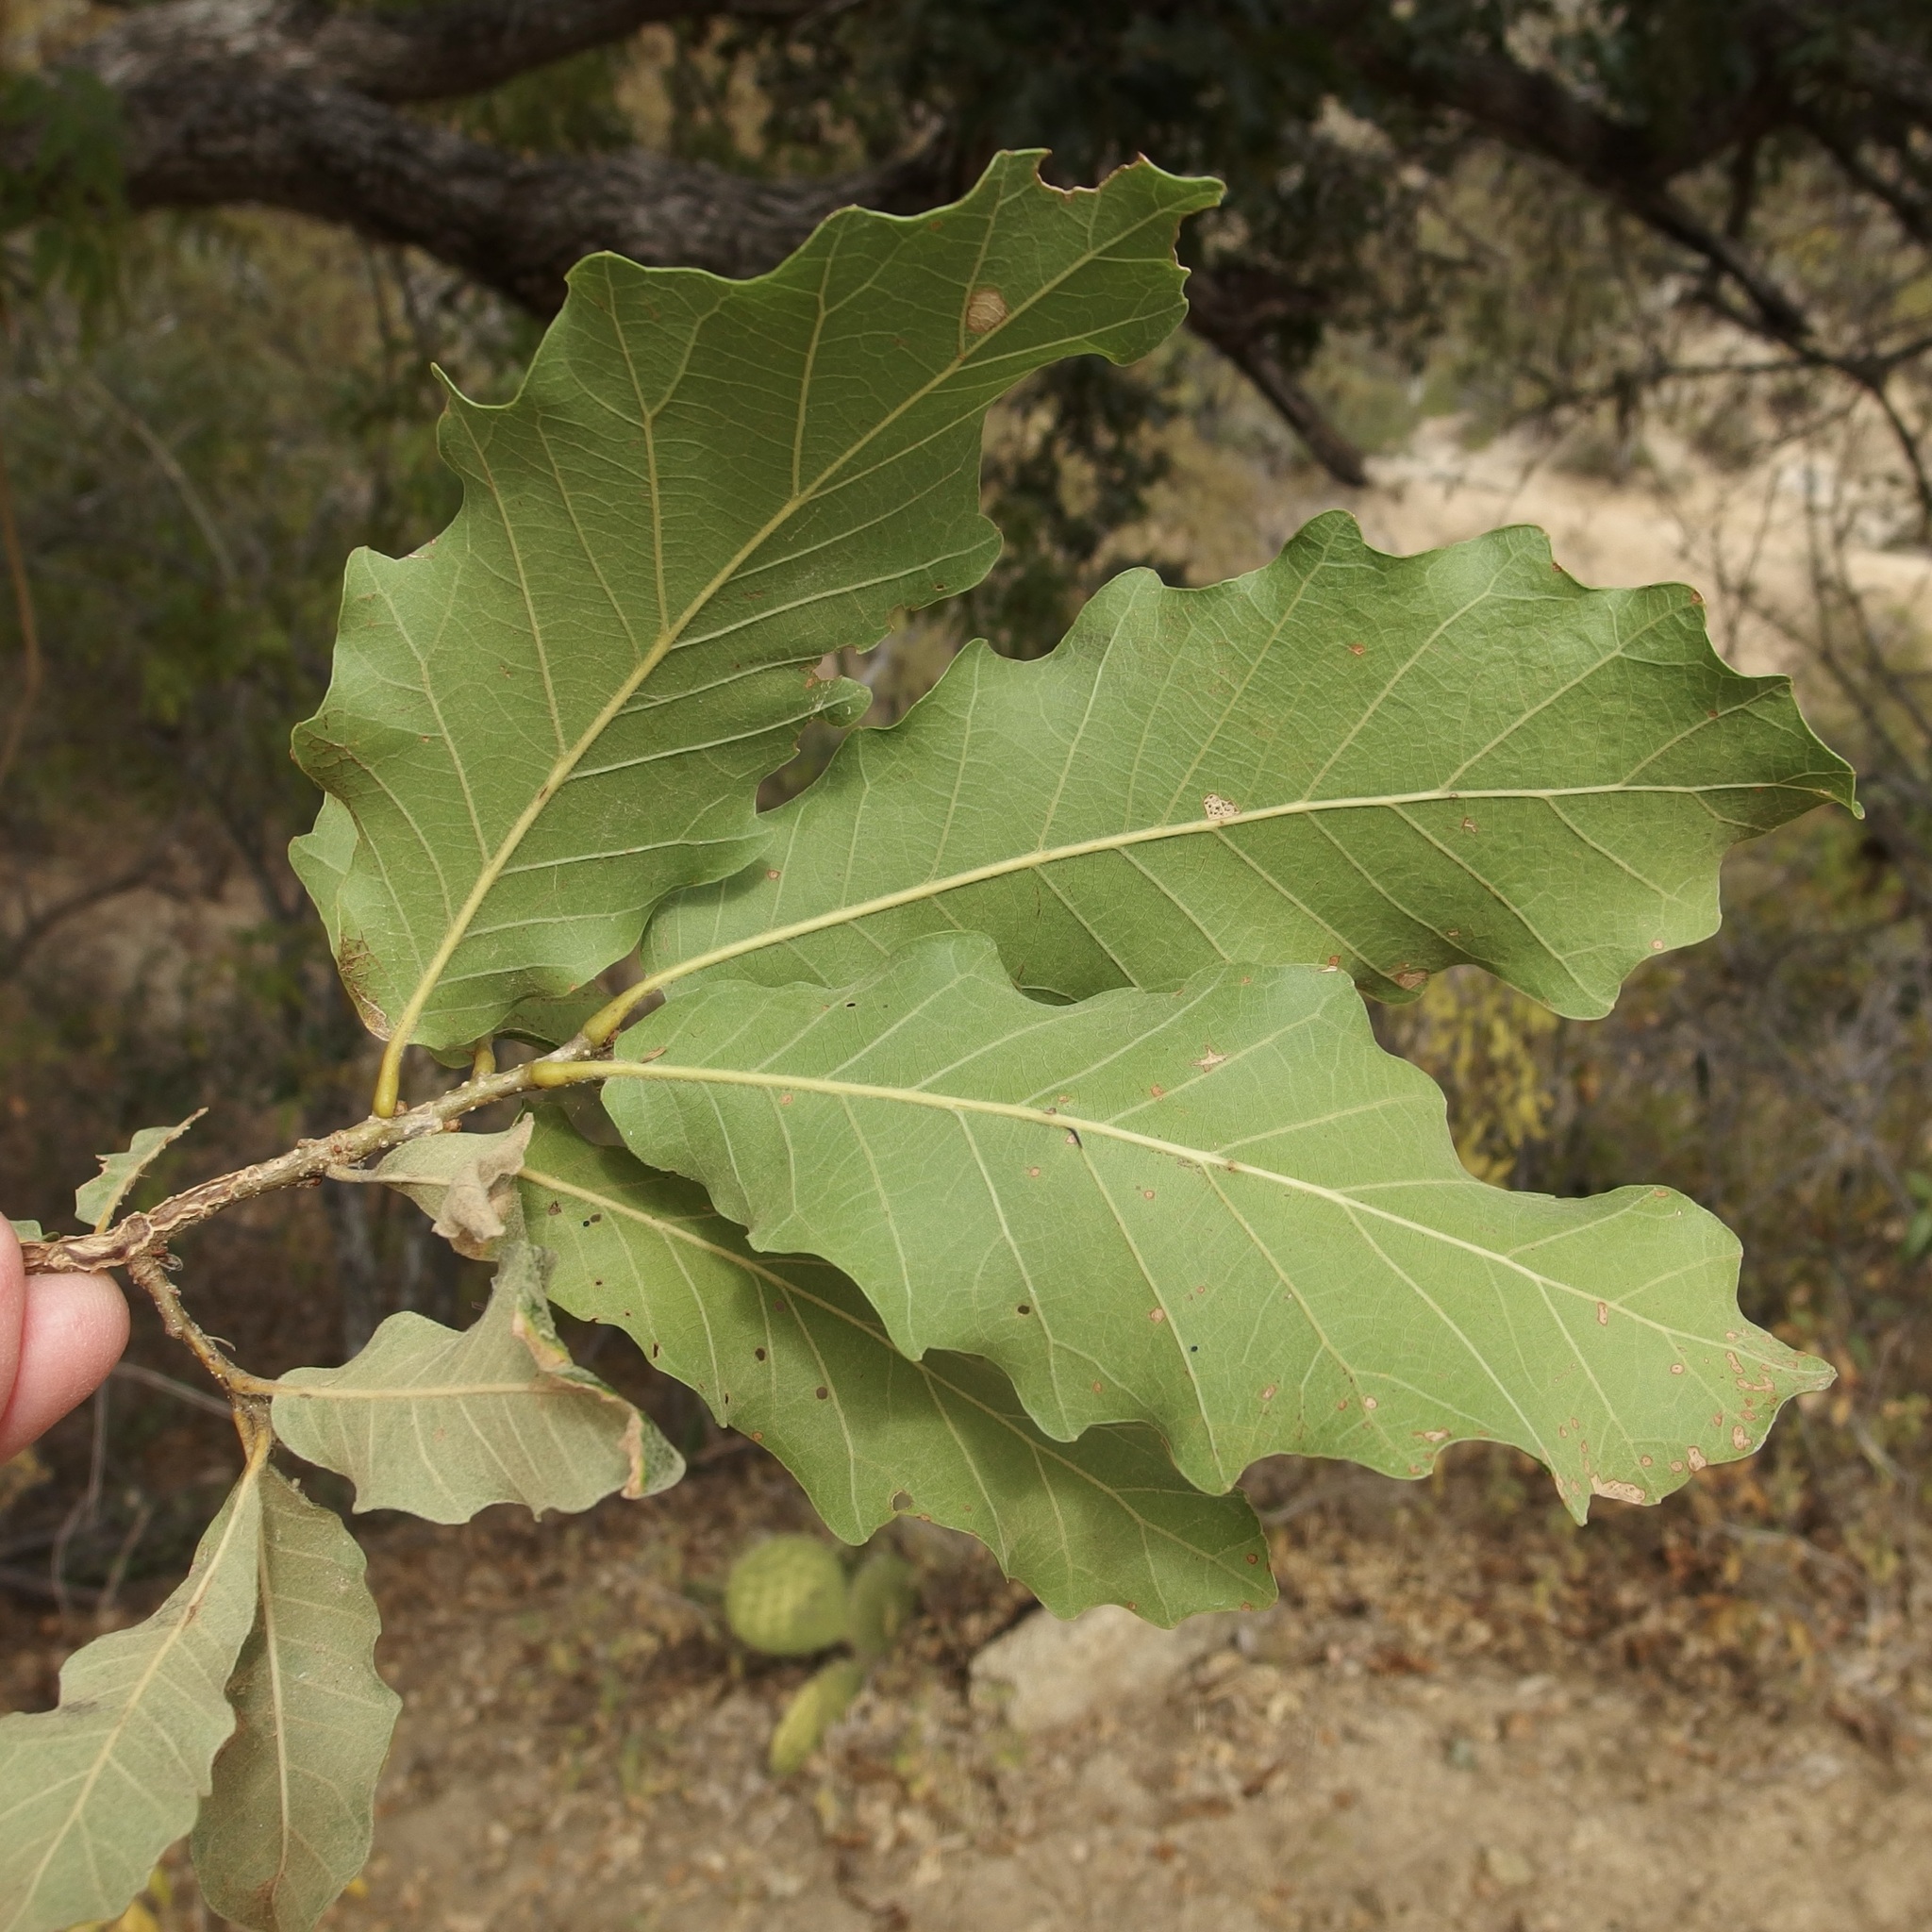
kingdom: Plantae
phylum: Tracheophyta
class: Magnoliopsida
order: Fagales
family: Fagaceae
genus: Quercus
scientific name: Quercus tuberculata
